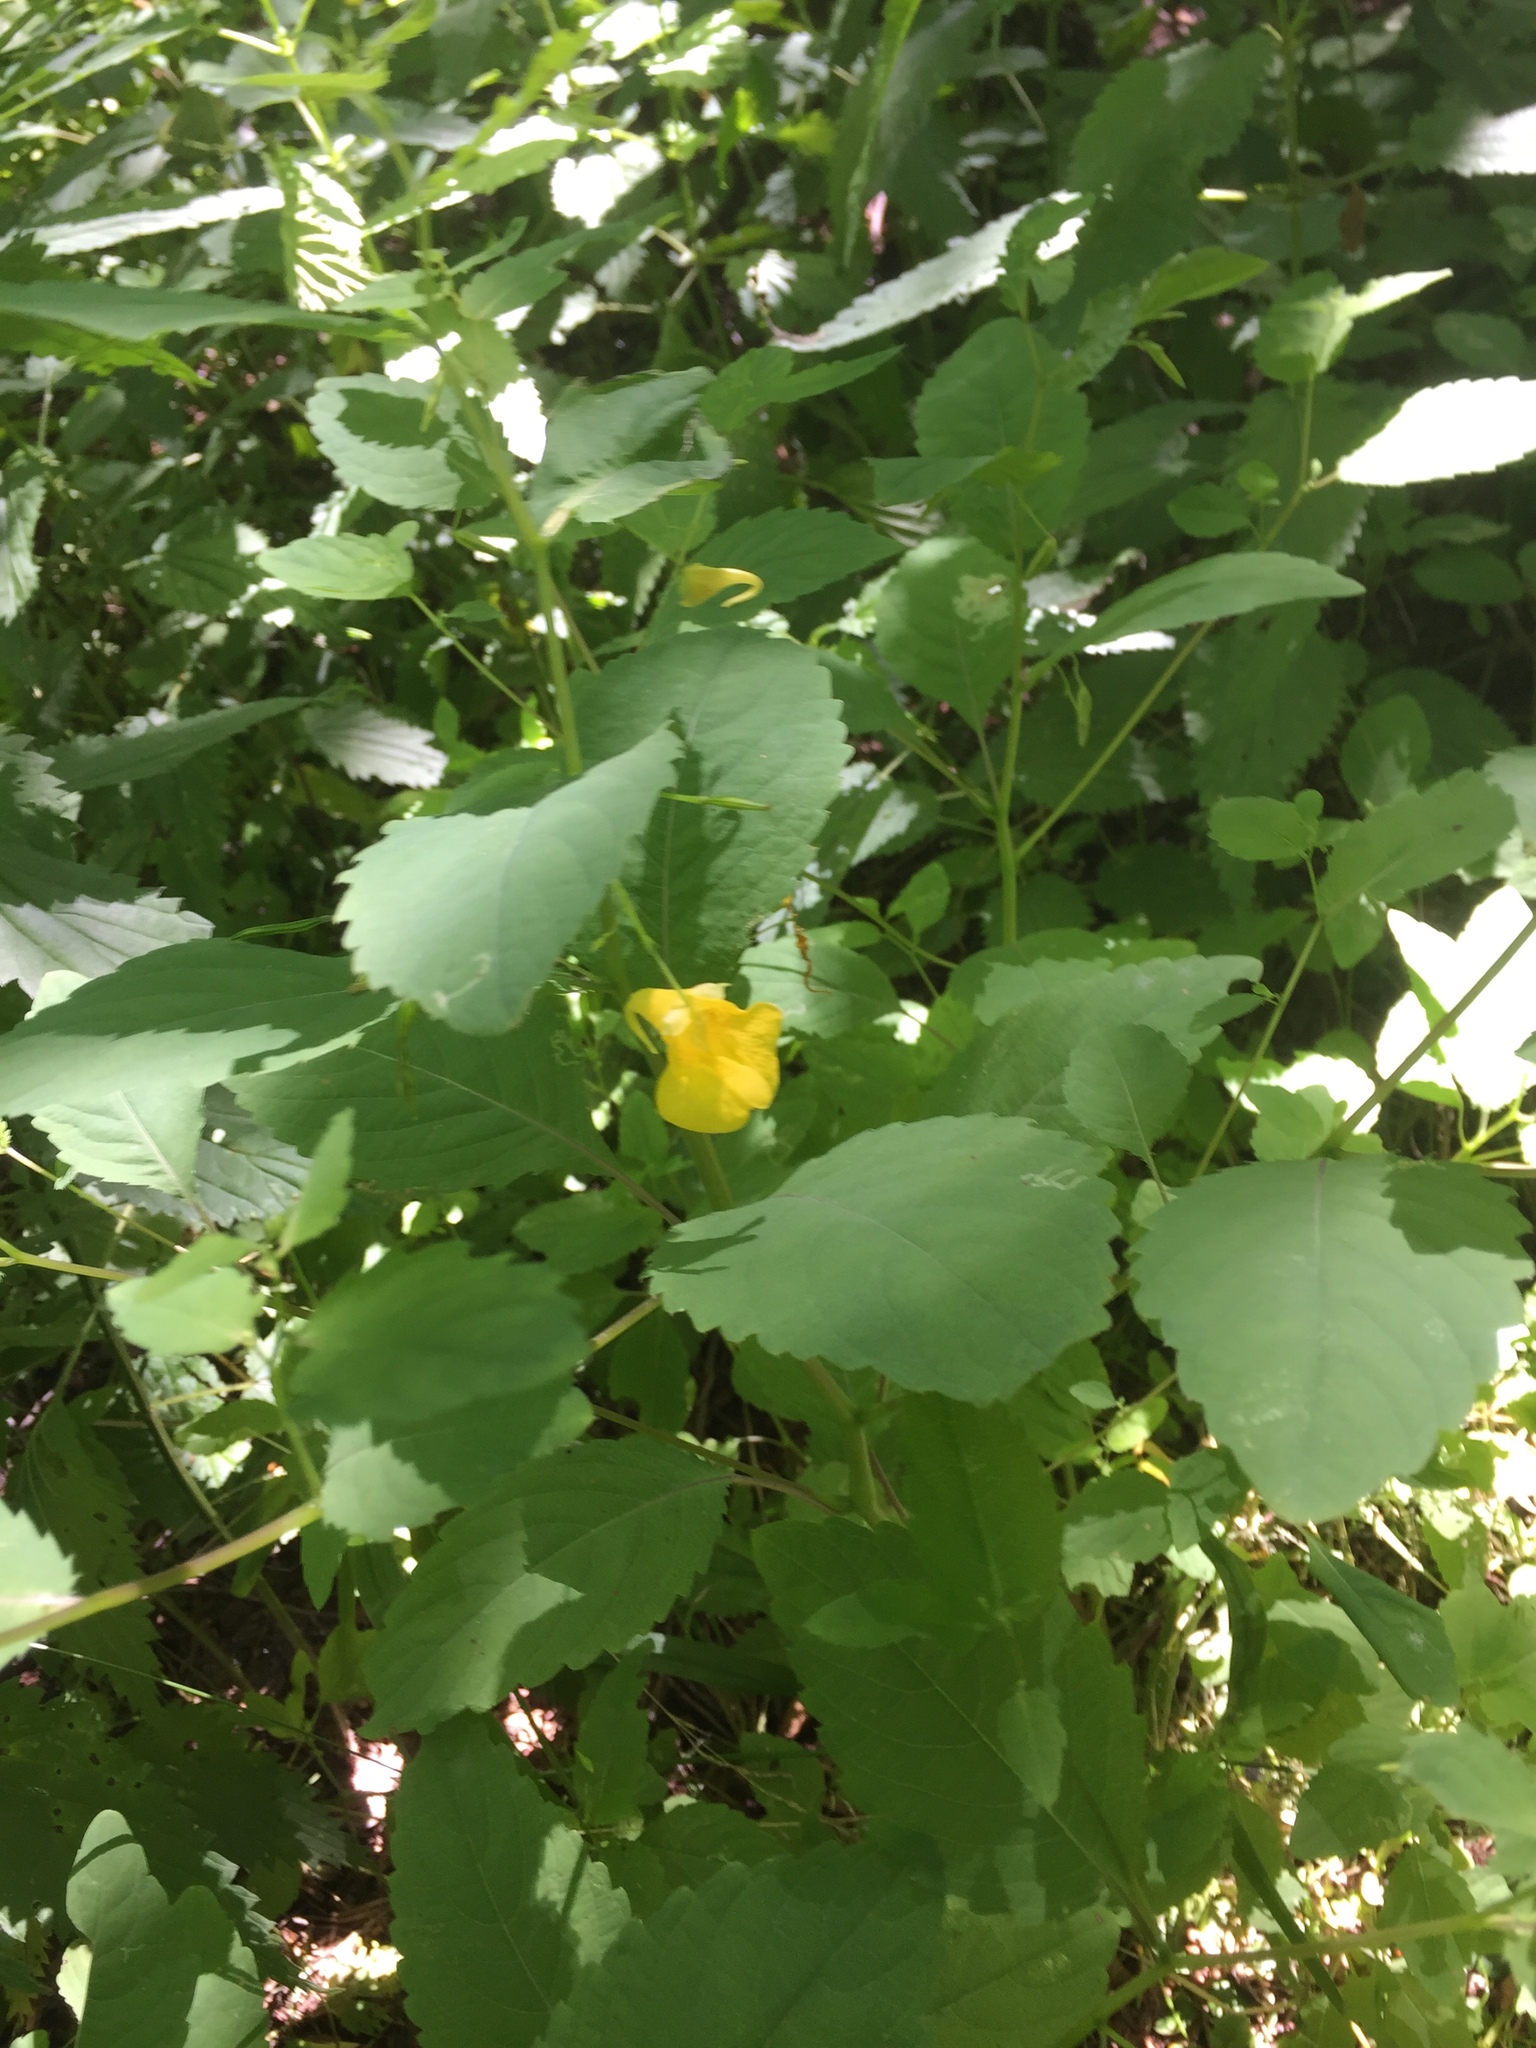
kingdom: Plantae
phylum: Tracheophyta
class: Magnoliopsida
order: Ericales
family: Balsaminaceae
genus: Impatiens
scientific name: Impatiens noli-tangere
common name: Touch-me-not balsam
